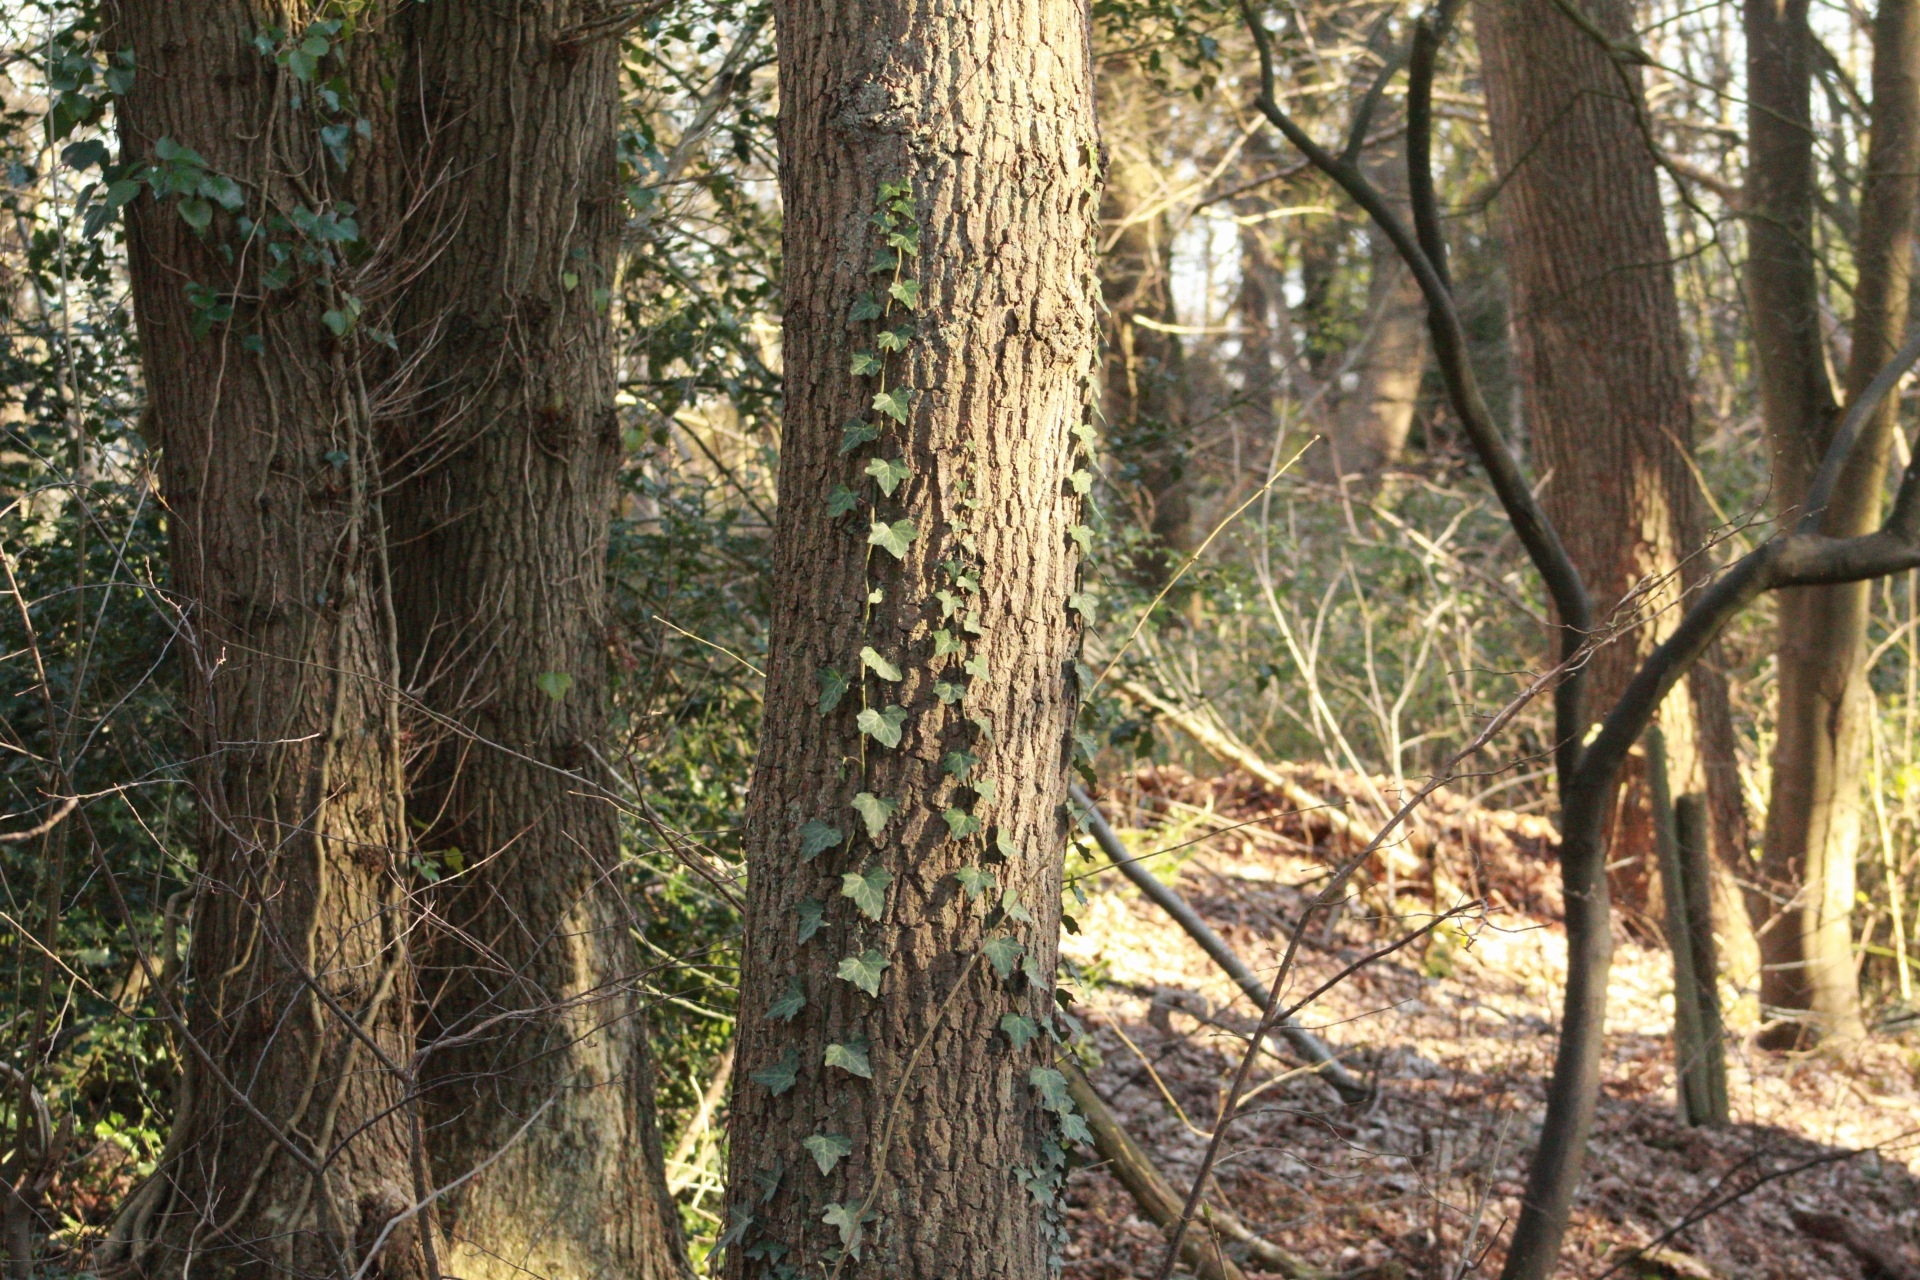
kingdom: Plantae
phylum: Tracheophyta
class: Magnoliopsida
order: Apiales
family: Araliaceae
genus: Hedera
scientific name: Hedera helix
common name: Ivy
